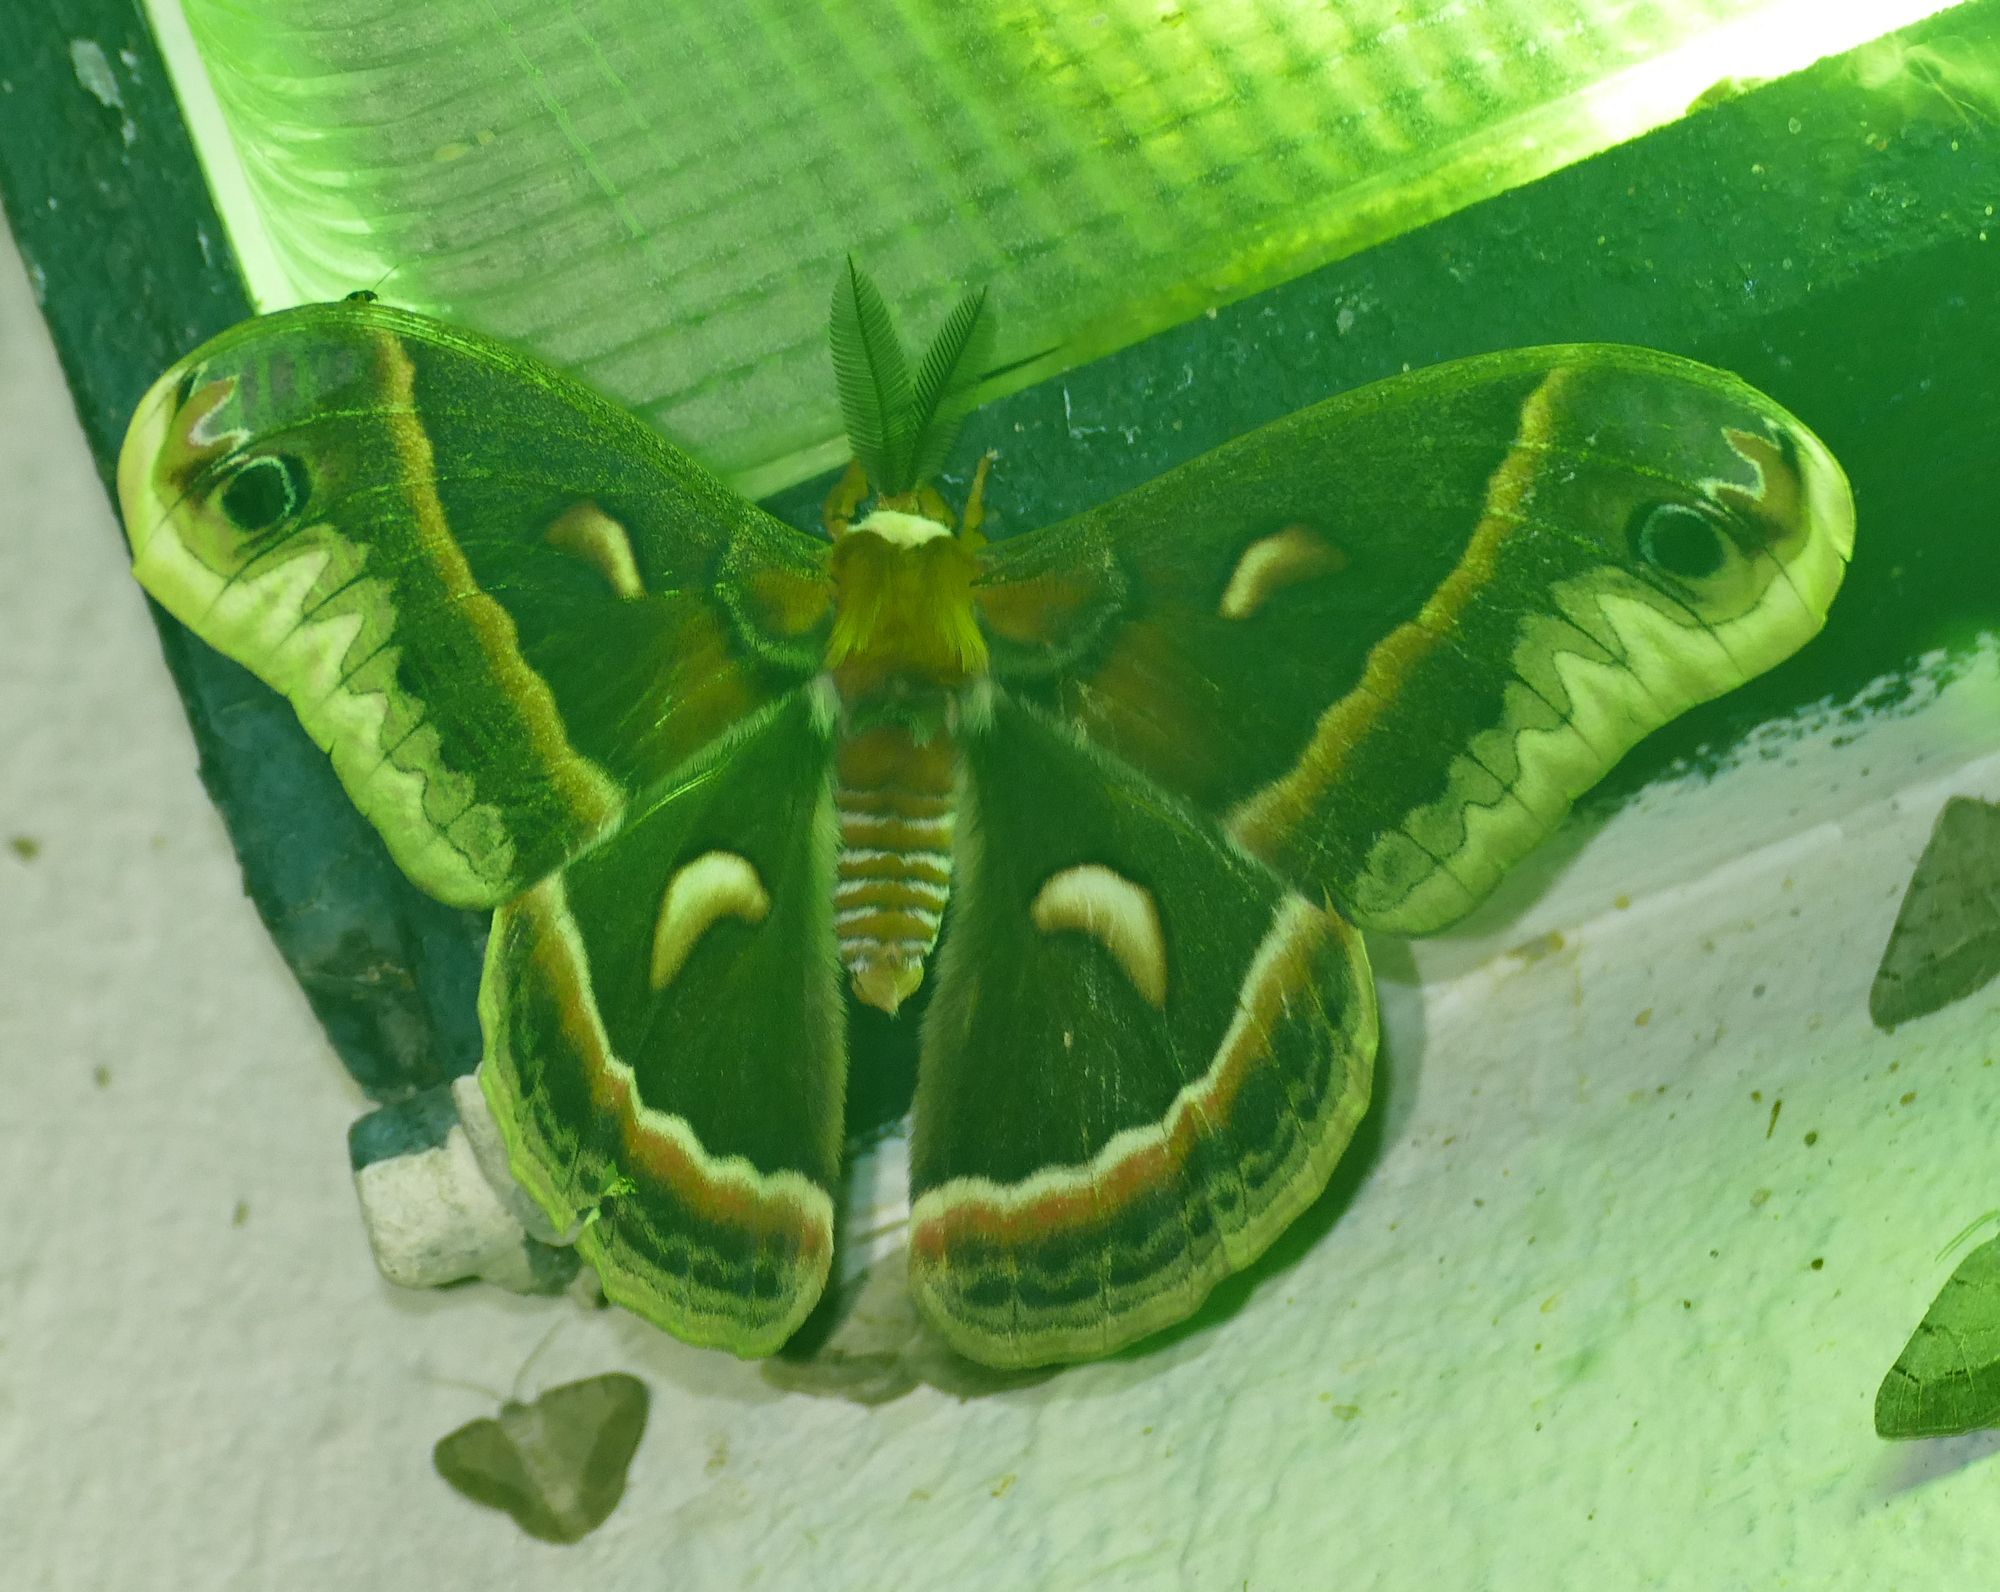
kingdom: Animalia
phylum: Arthropoda
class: Insecta
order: Lepidoptera
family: Saturniidae
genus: Hyalophora
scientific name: Hyalophora cecropia
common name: Cecropia silkmoth
